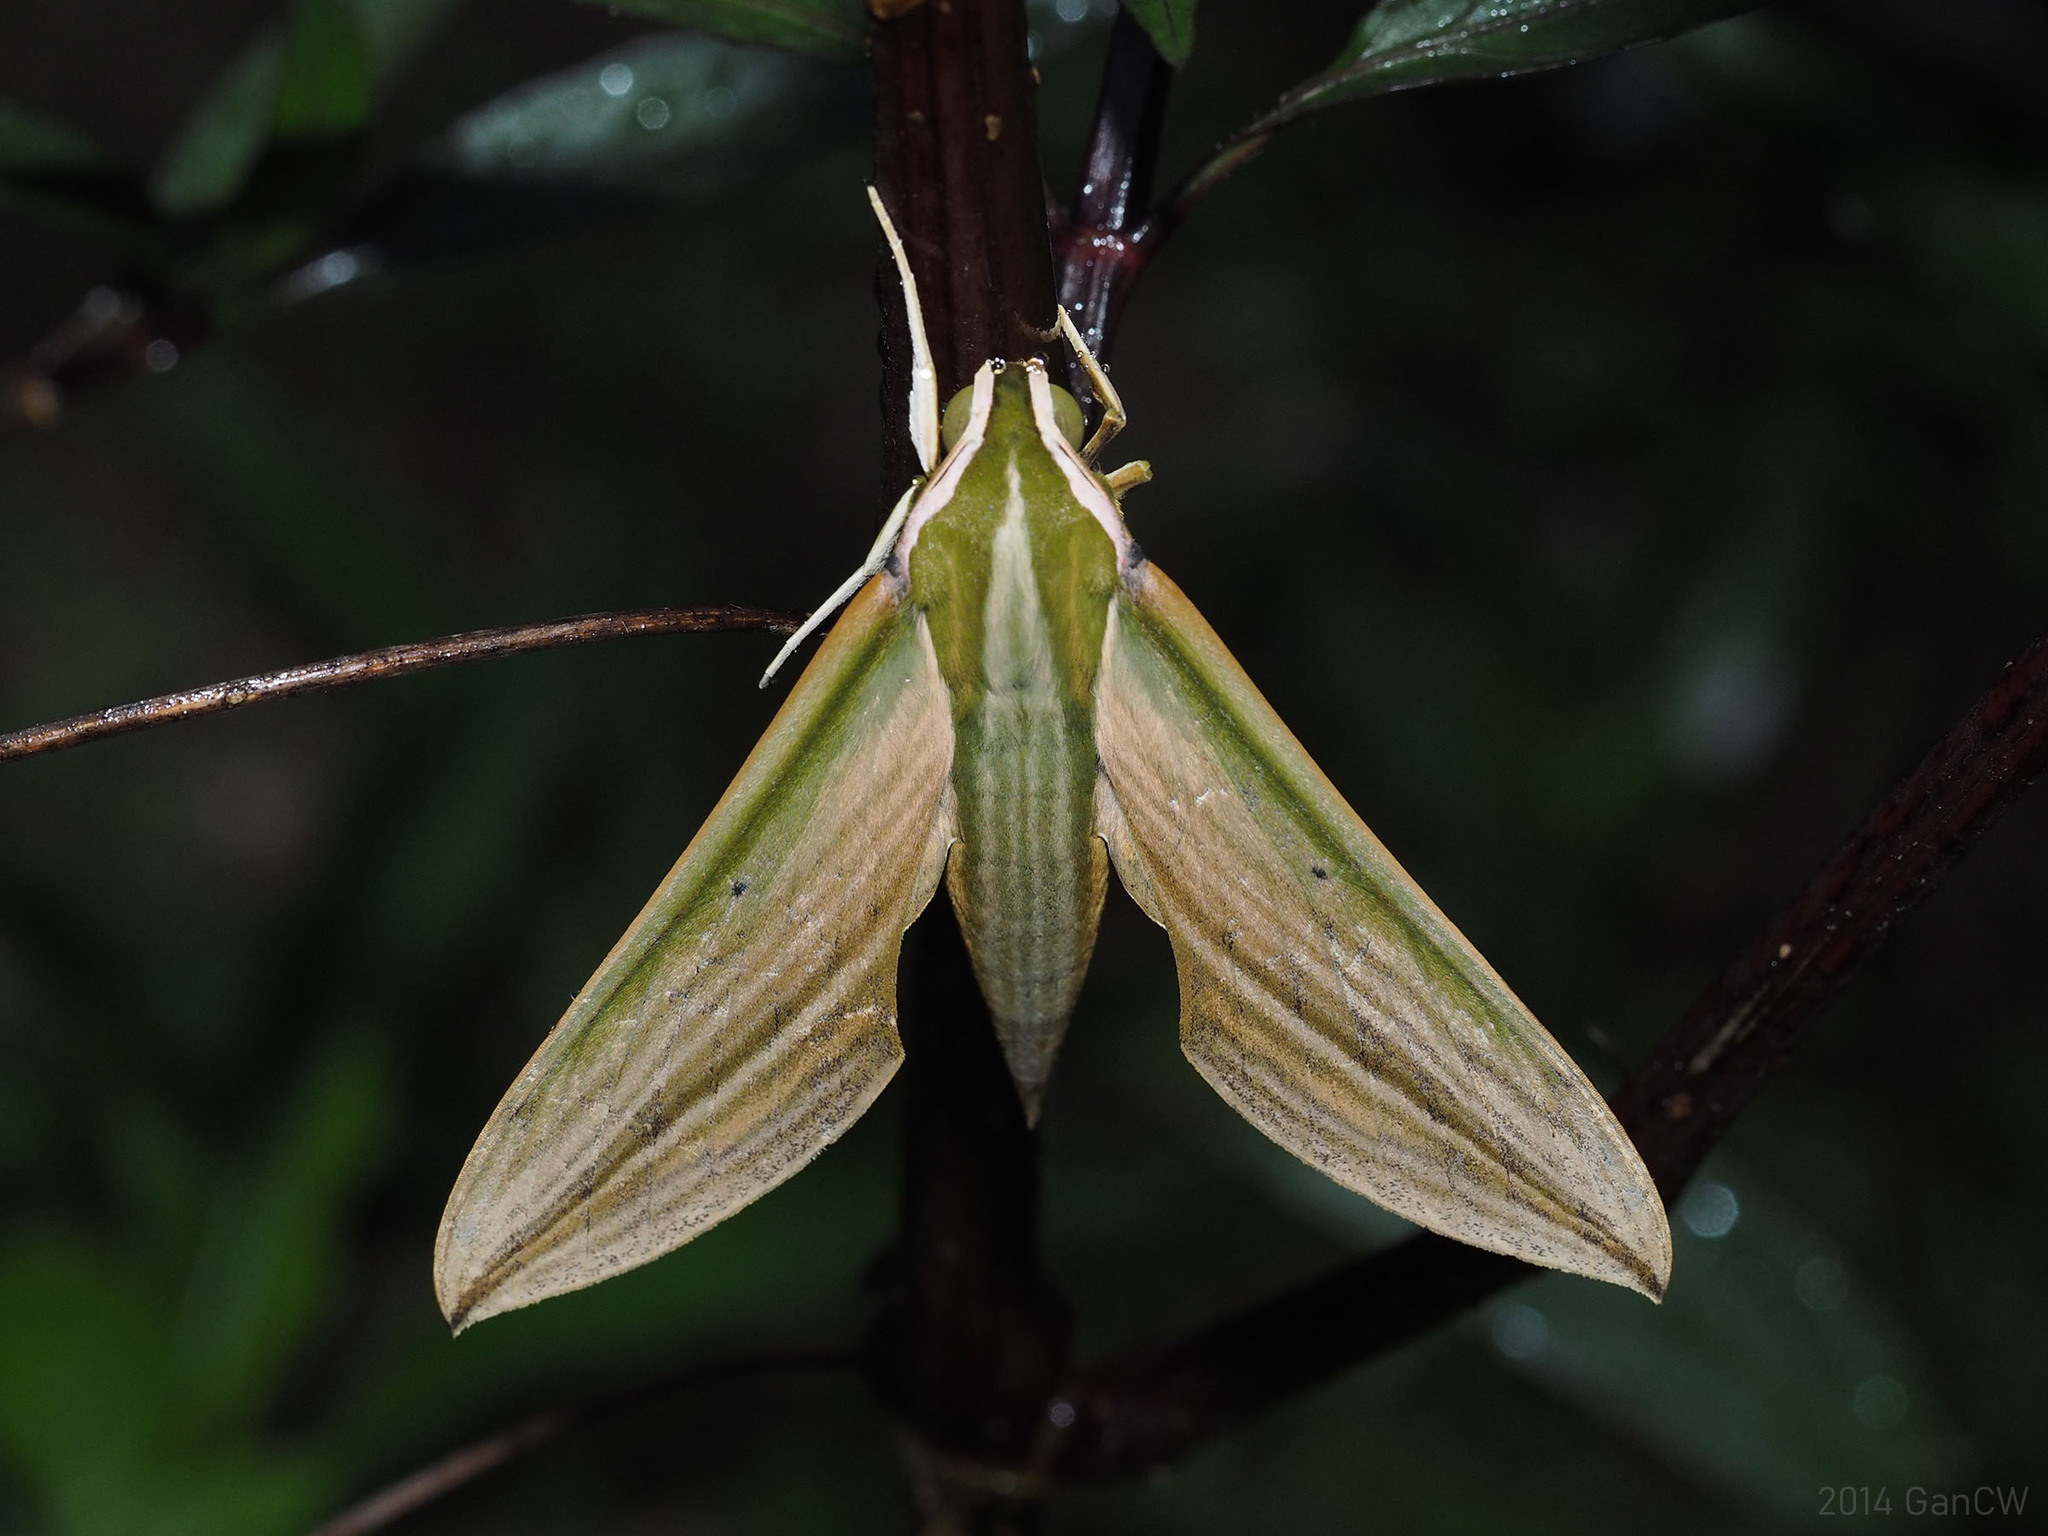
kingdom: Animalia
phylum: Arthropoda
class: Insecta
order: Lepidoptera
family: Sphingidae
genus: Cechetra
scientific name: Cechetra lineosa
